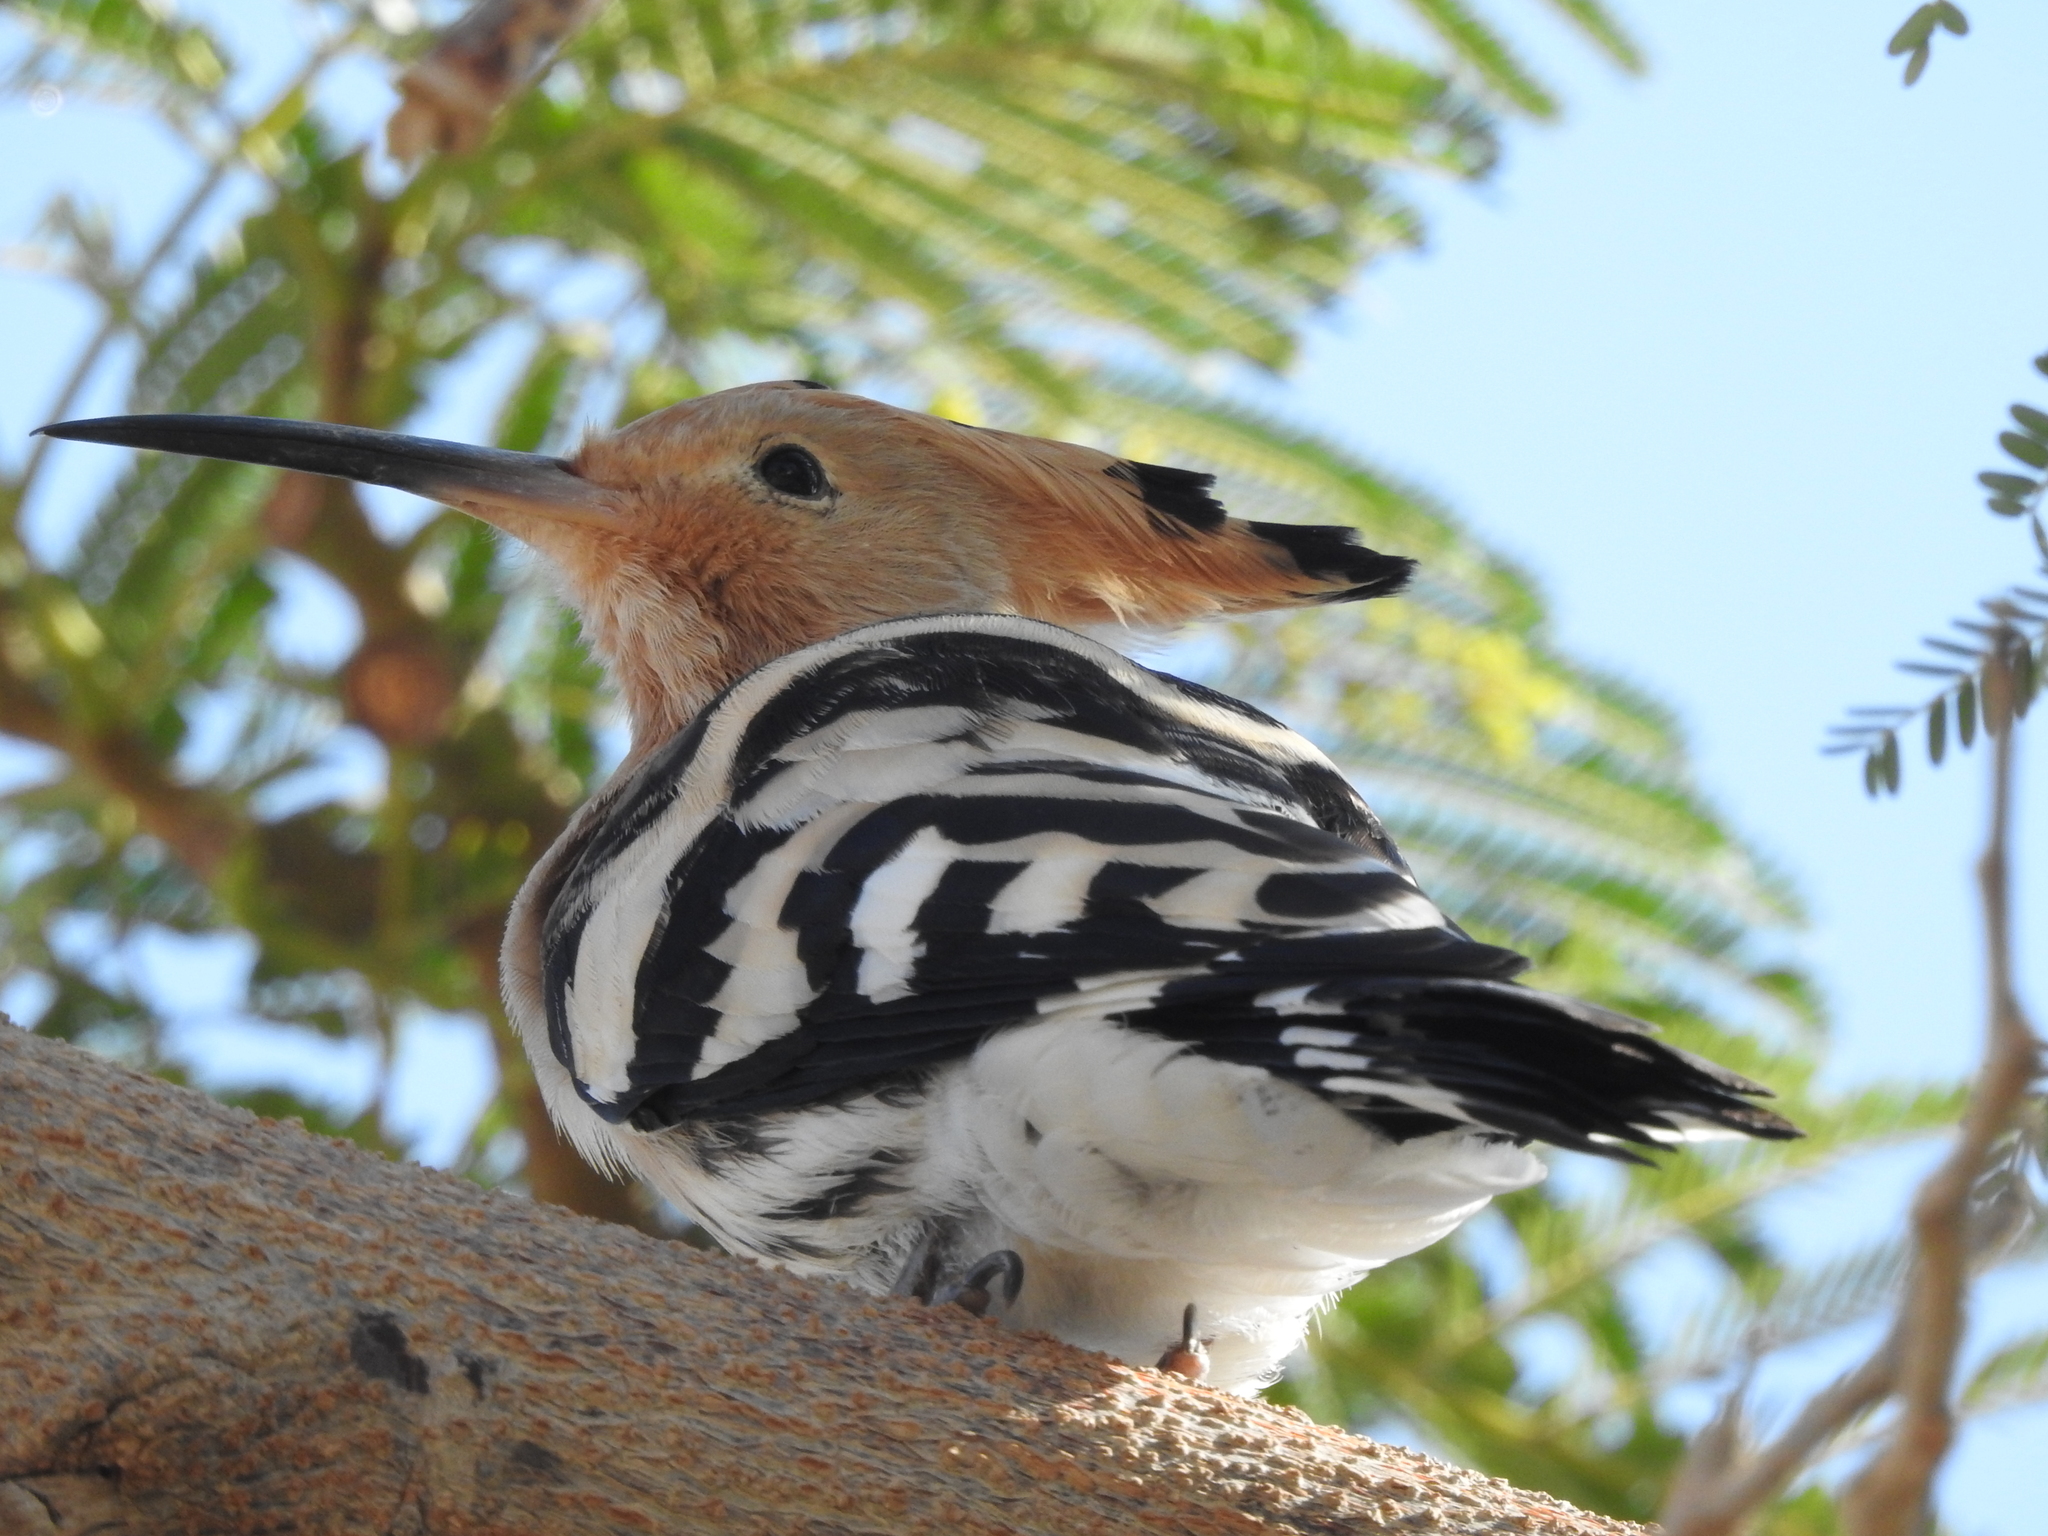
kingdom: Animalia
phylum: Chordata
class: Aves
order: Bucerotiformes
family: Upupidae
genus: Upupa
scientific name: Upupa epops
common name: Eurasian hoopoe
